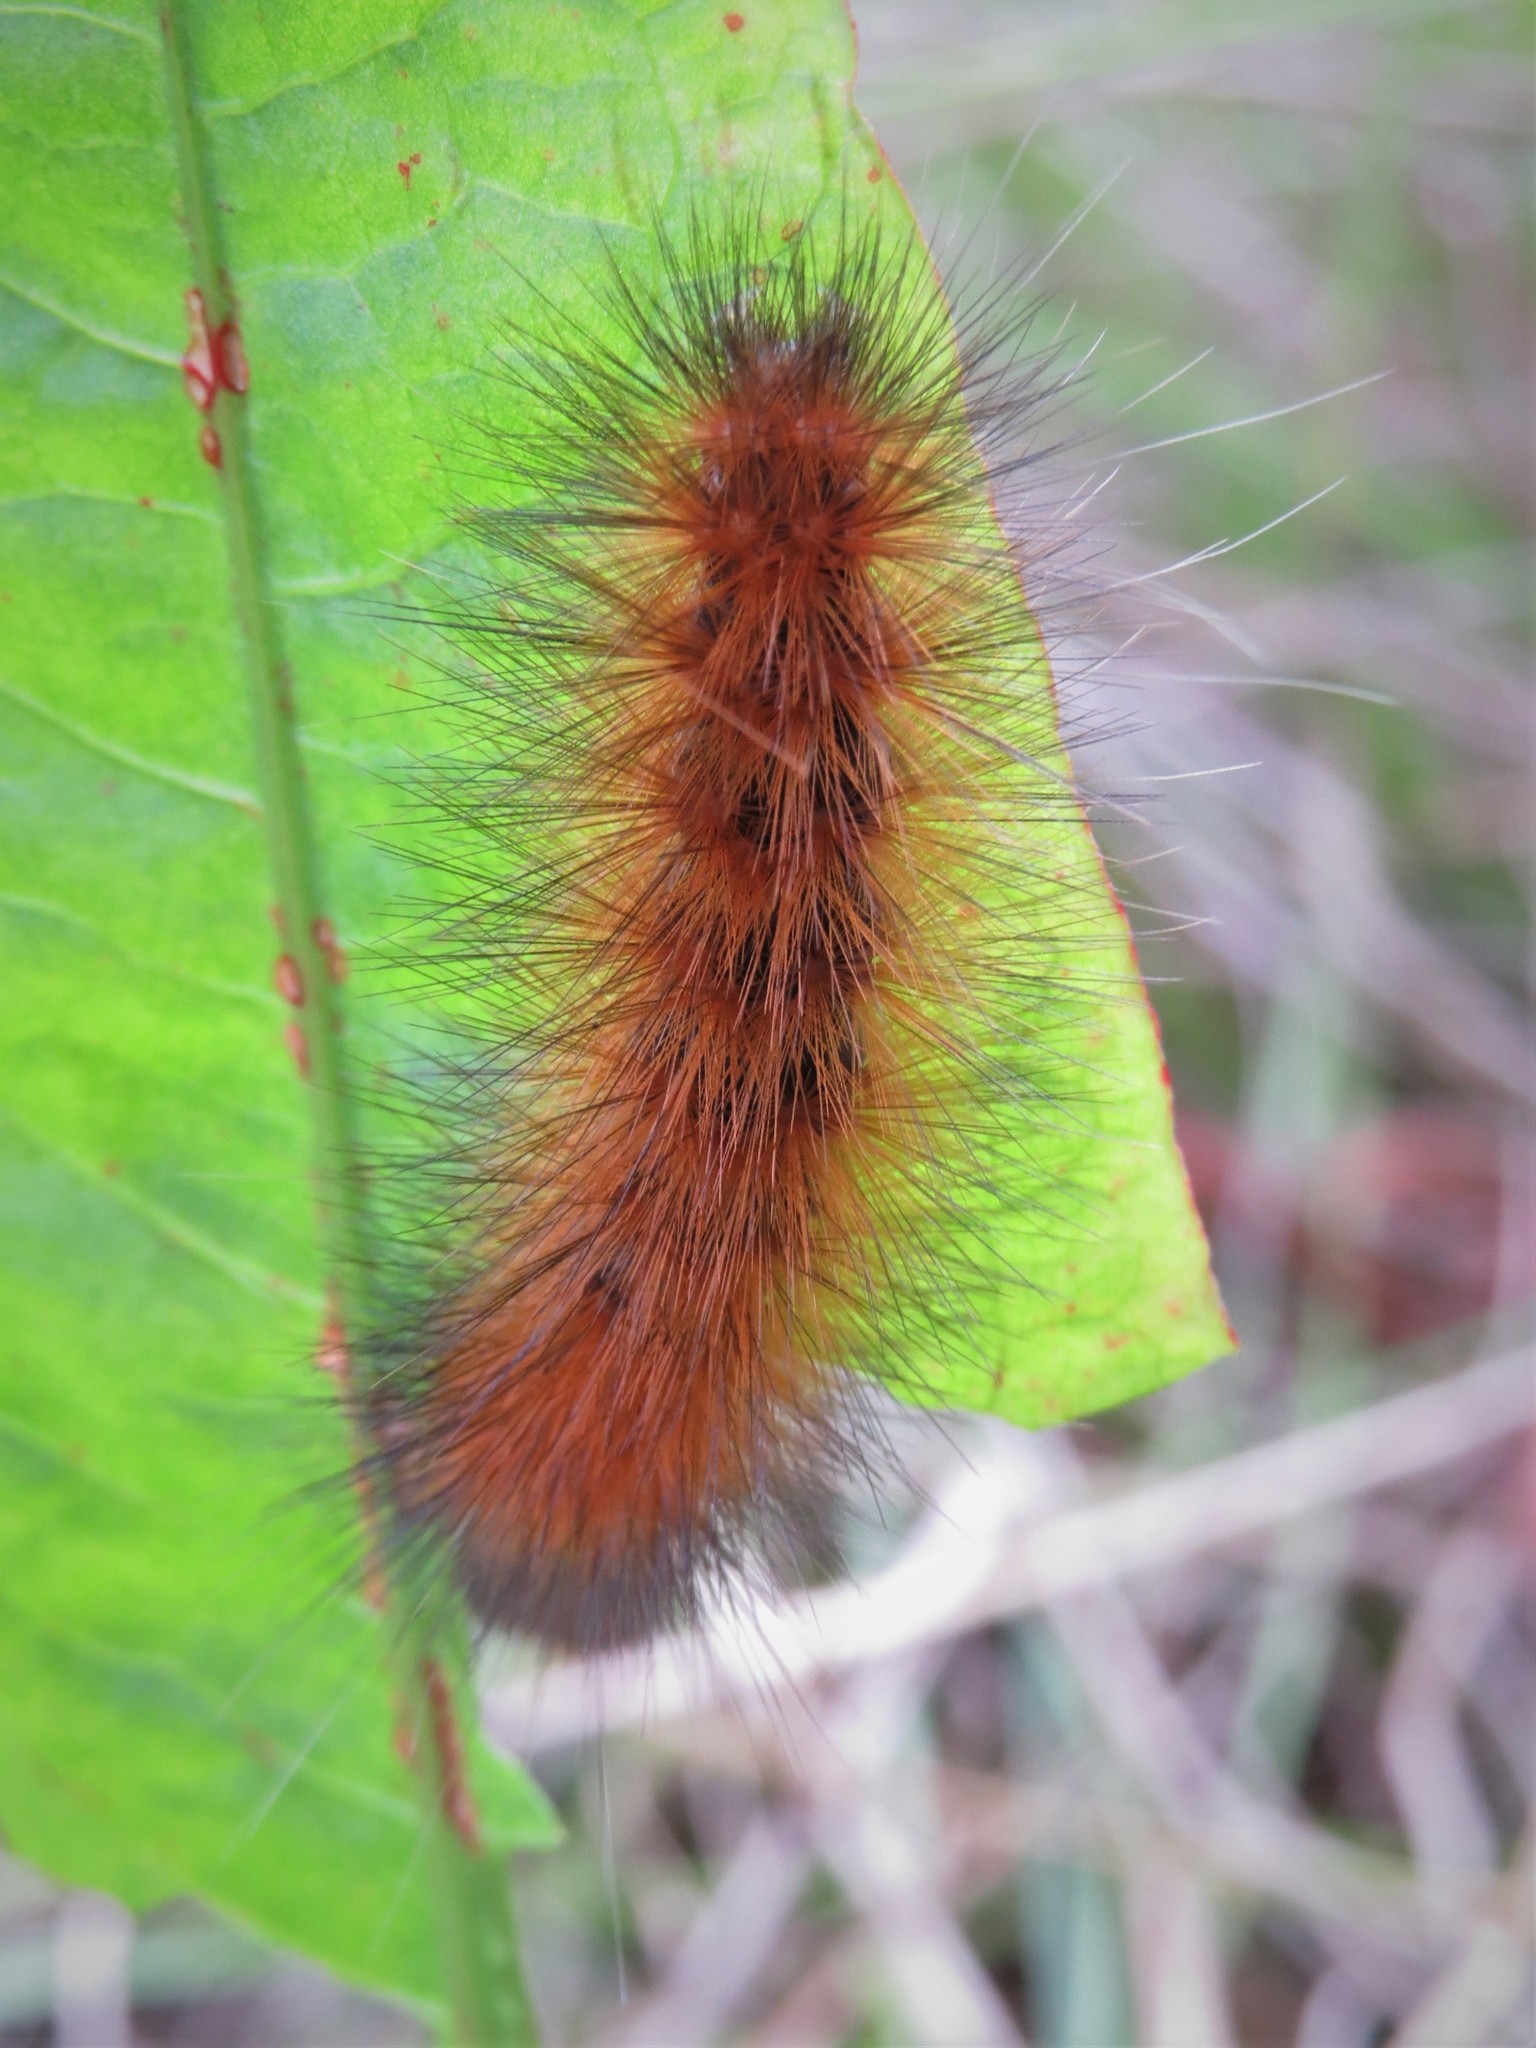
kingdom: Animalia
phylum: Arthropoda
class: Insecta
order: Lepidoptera
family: Erebidae
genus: Spilosoma
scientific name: Spilosoma virginica
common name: Virginia tiger moth
